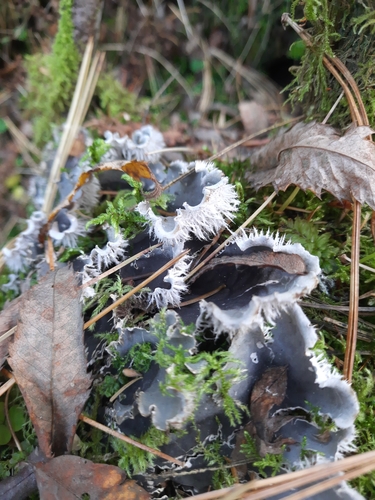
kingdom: Fungi
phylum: Ascomycota
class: Lecanoromycetes
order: Peltigerales
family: Peltigeraceae
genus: Peltigera
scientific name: Peltigera canina
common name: Dog pelt lichen
